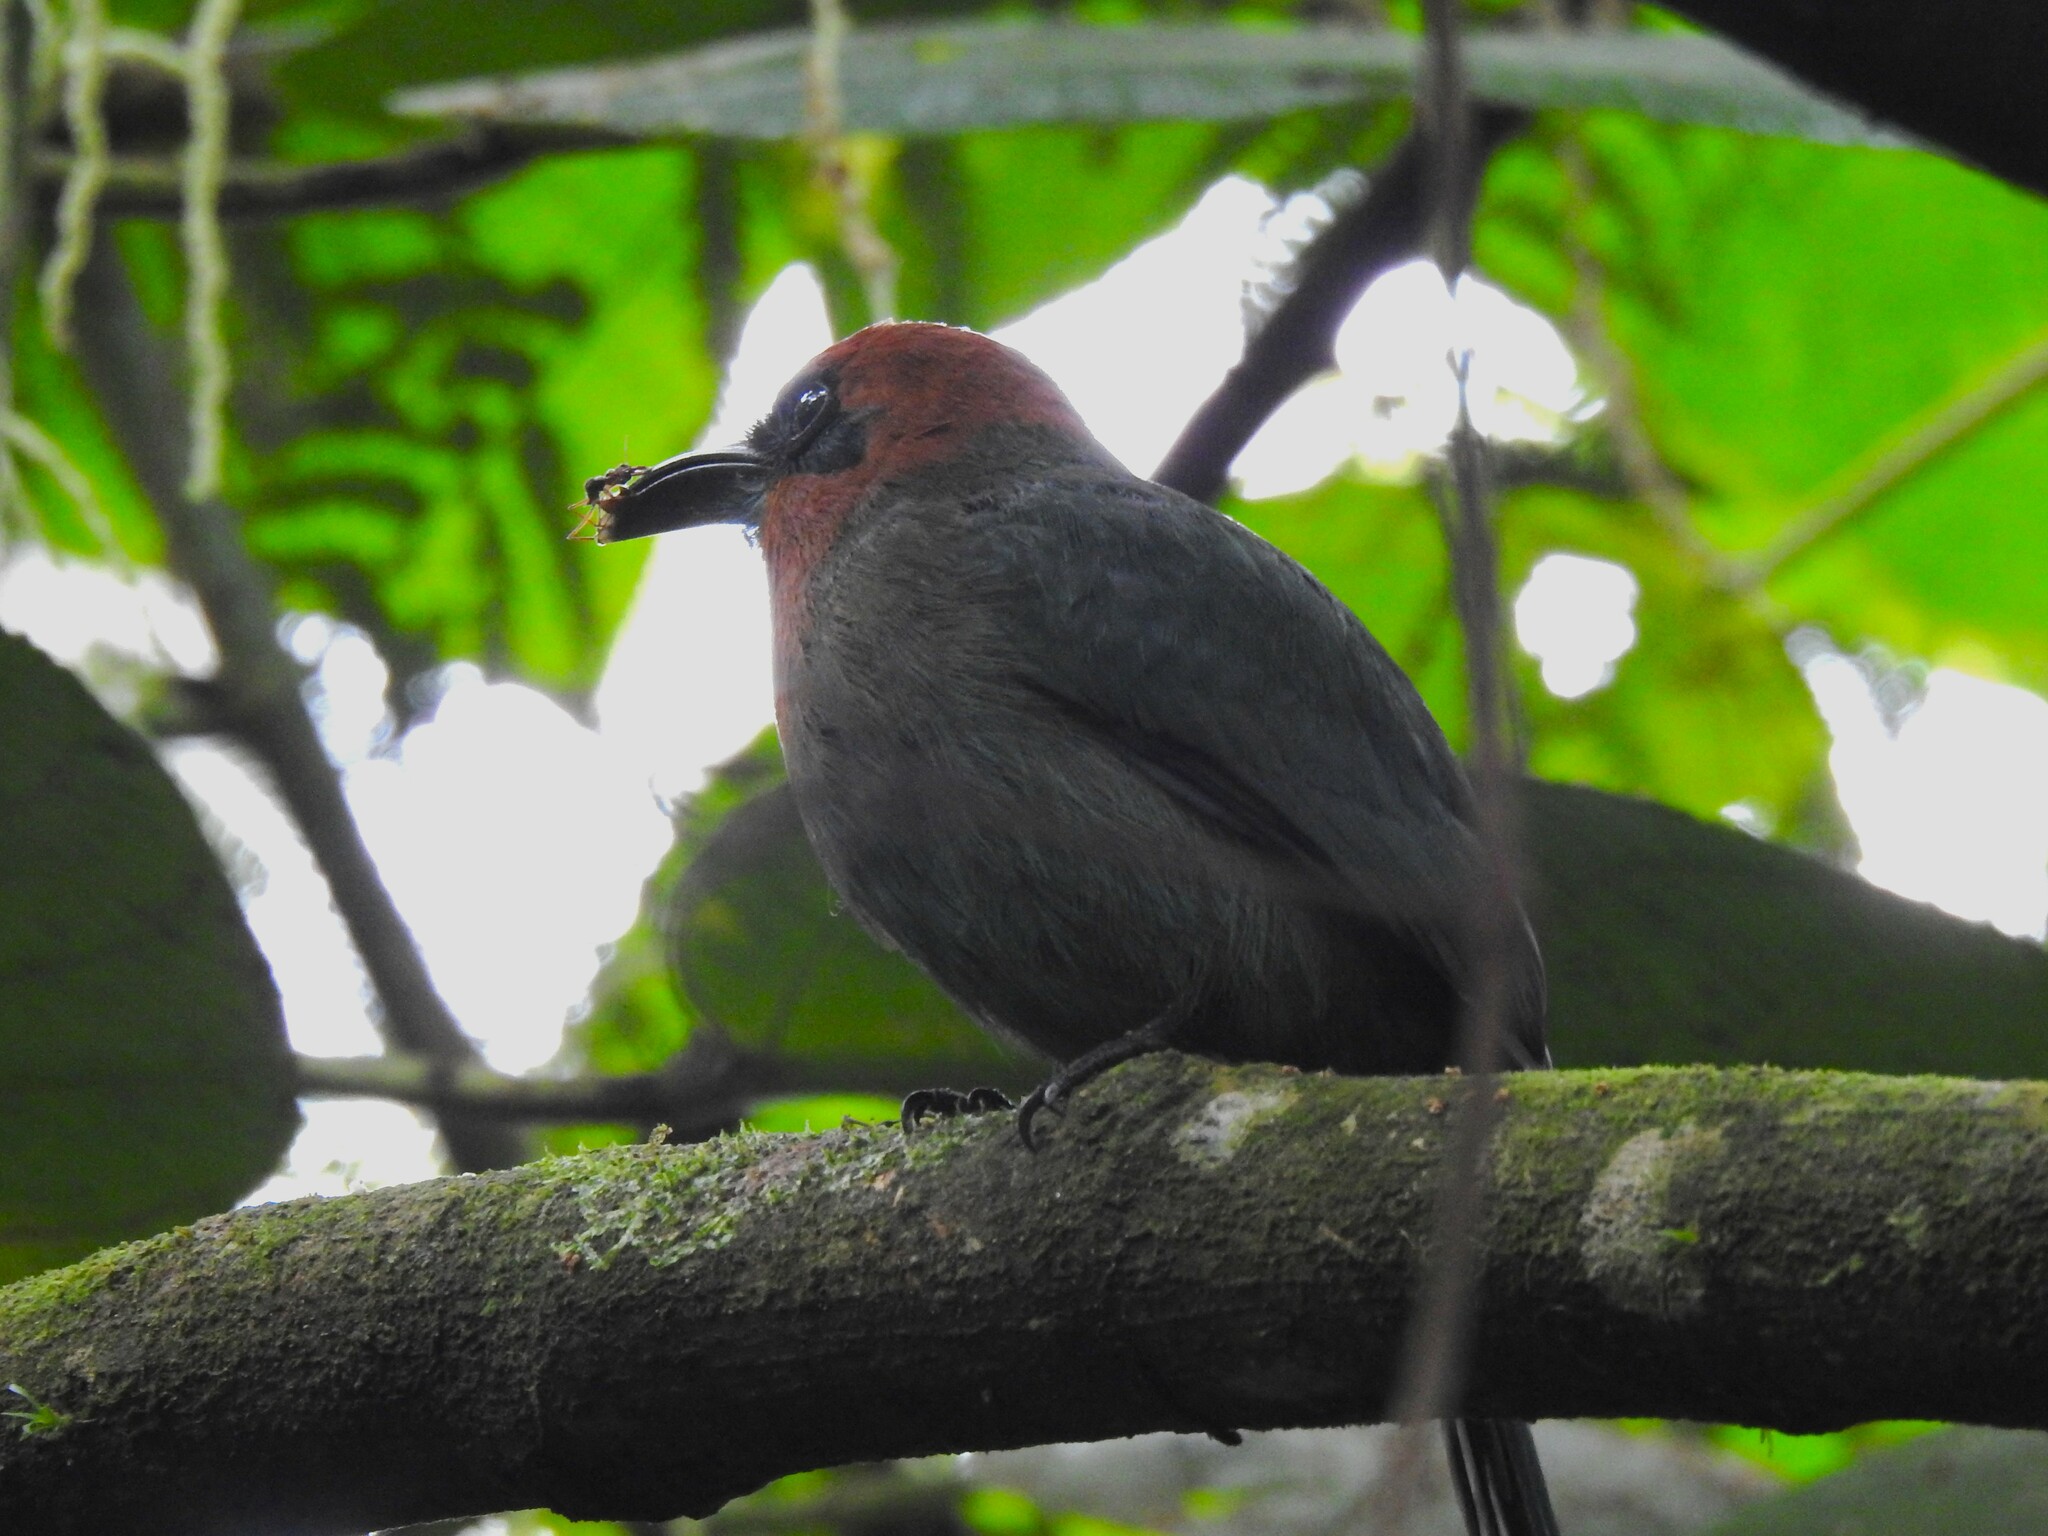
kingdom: Animalia
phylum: Chordata
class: Aves
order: Coraciiformes
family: Momotidae
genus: Electron
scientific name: Electron platyrhynchum
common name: Broad-billed motmot
